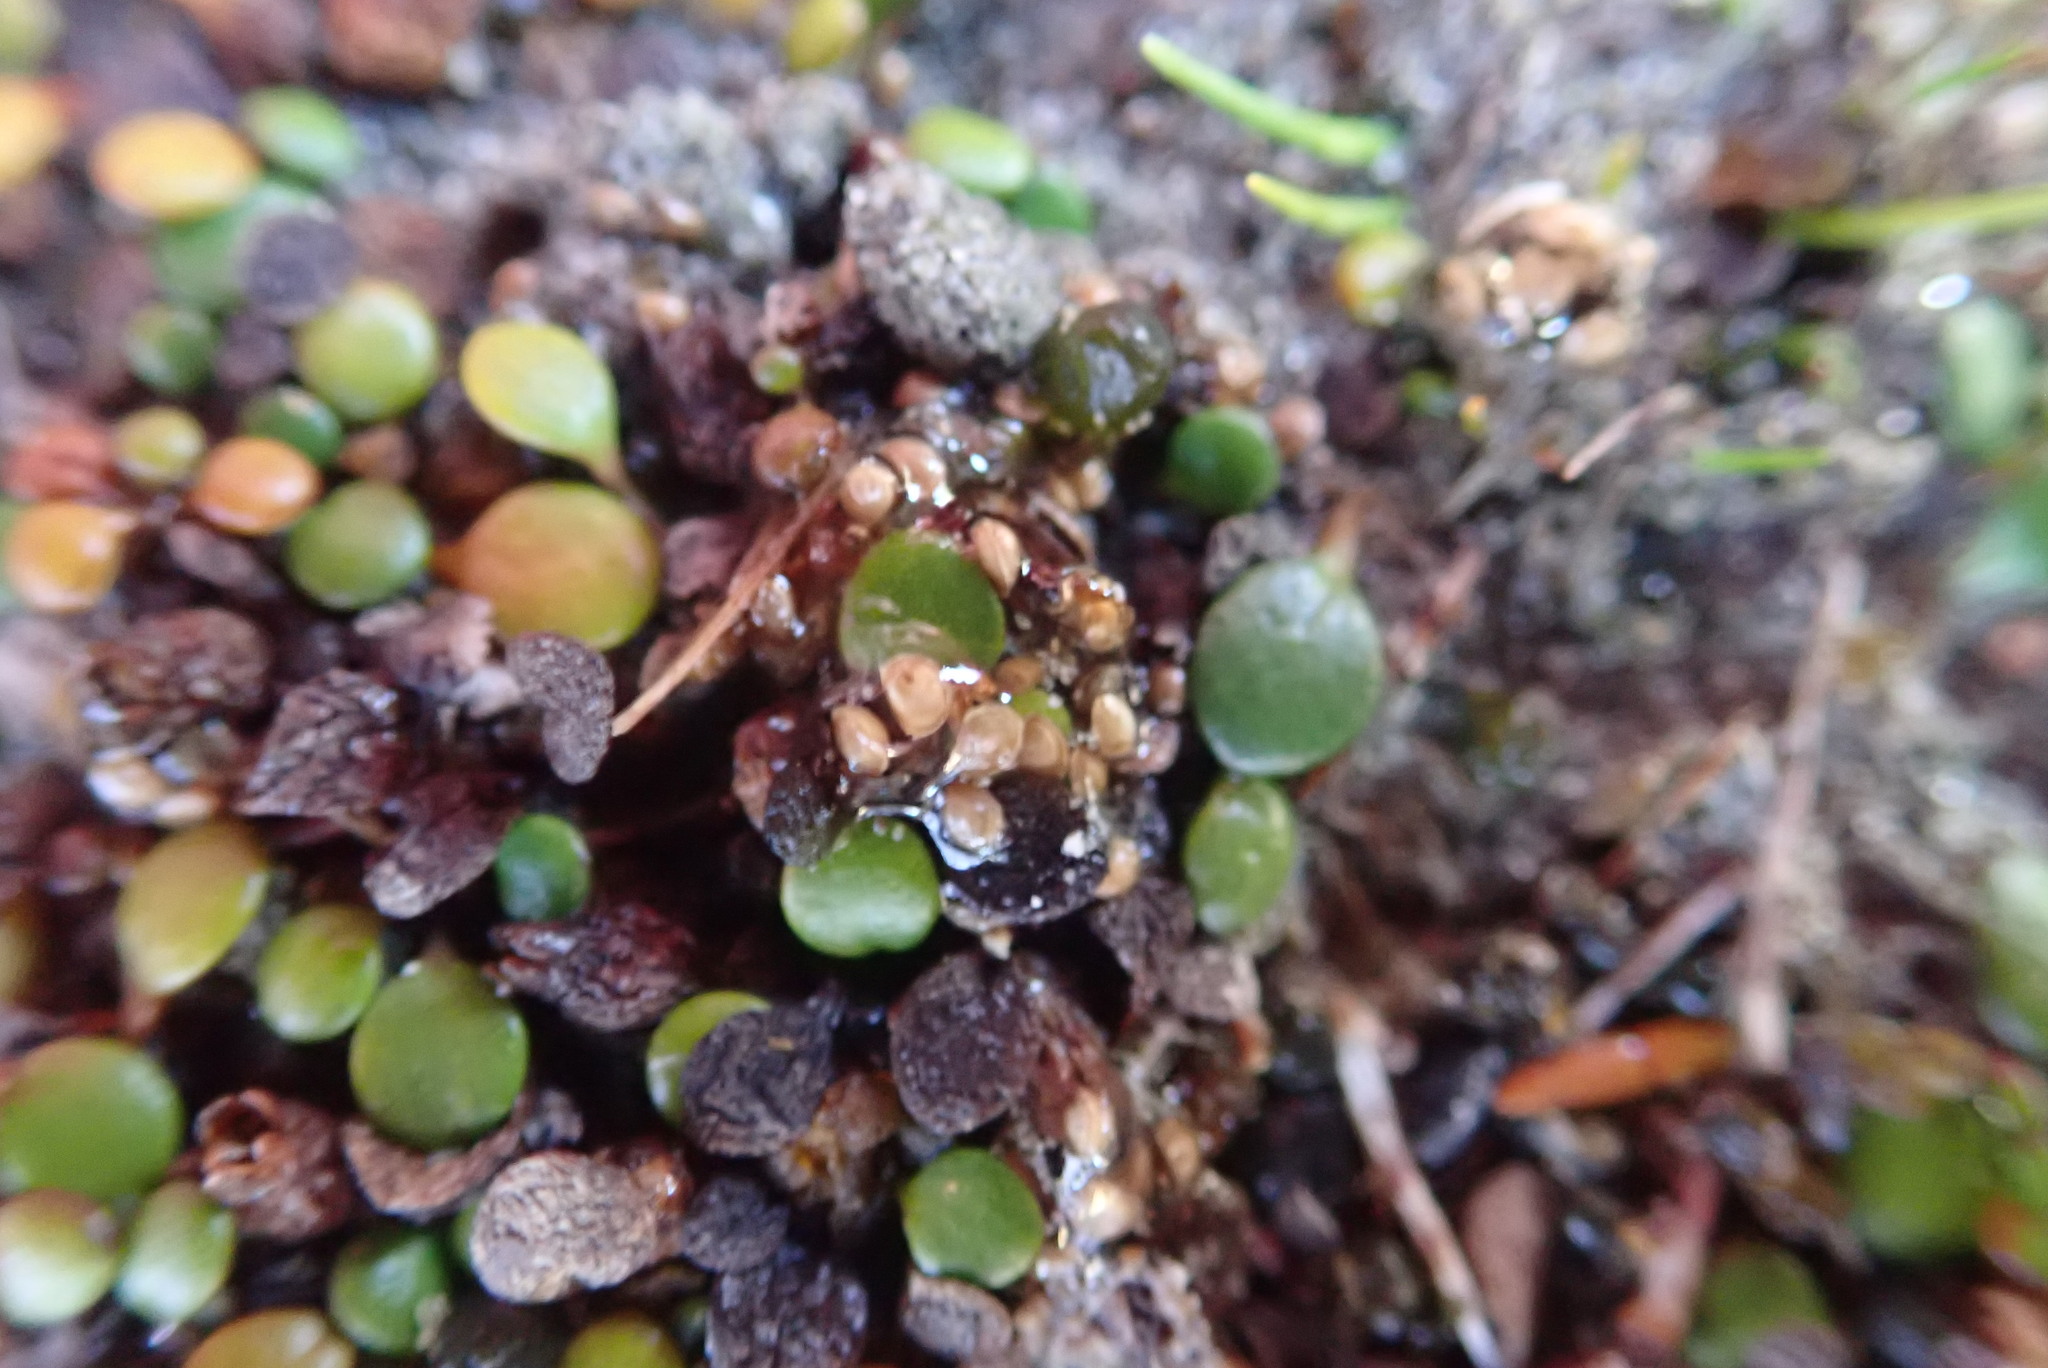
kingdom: Plantae
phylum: Tracheophyta
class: Magnoliopsida
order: Asterales
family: Goodeniaceae
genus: Goodenia
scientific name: Goodenia heenanii
